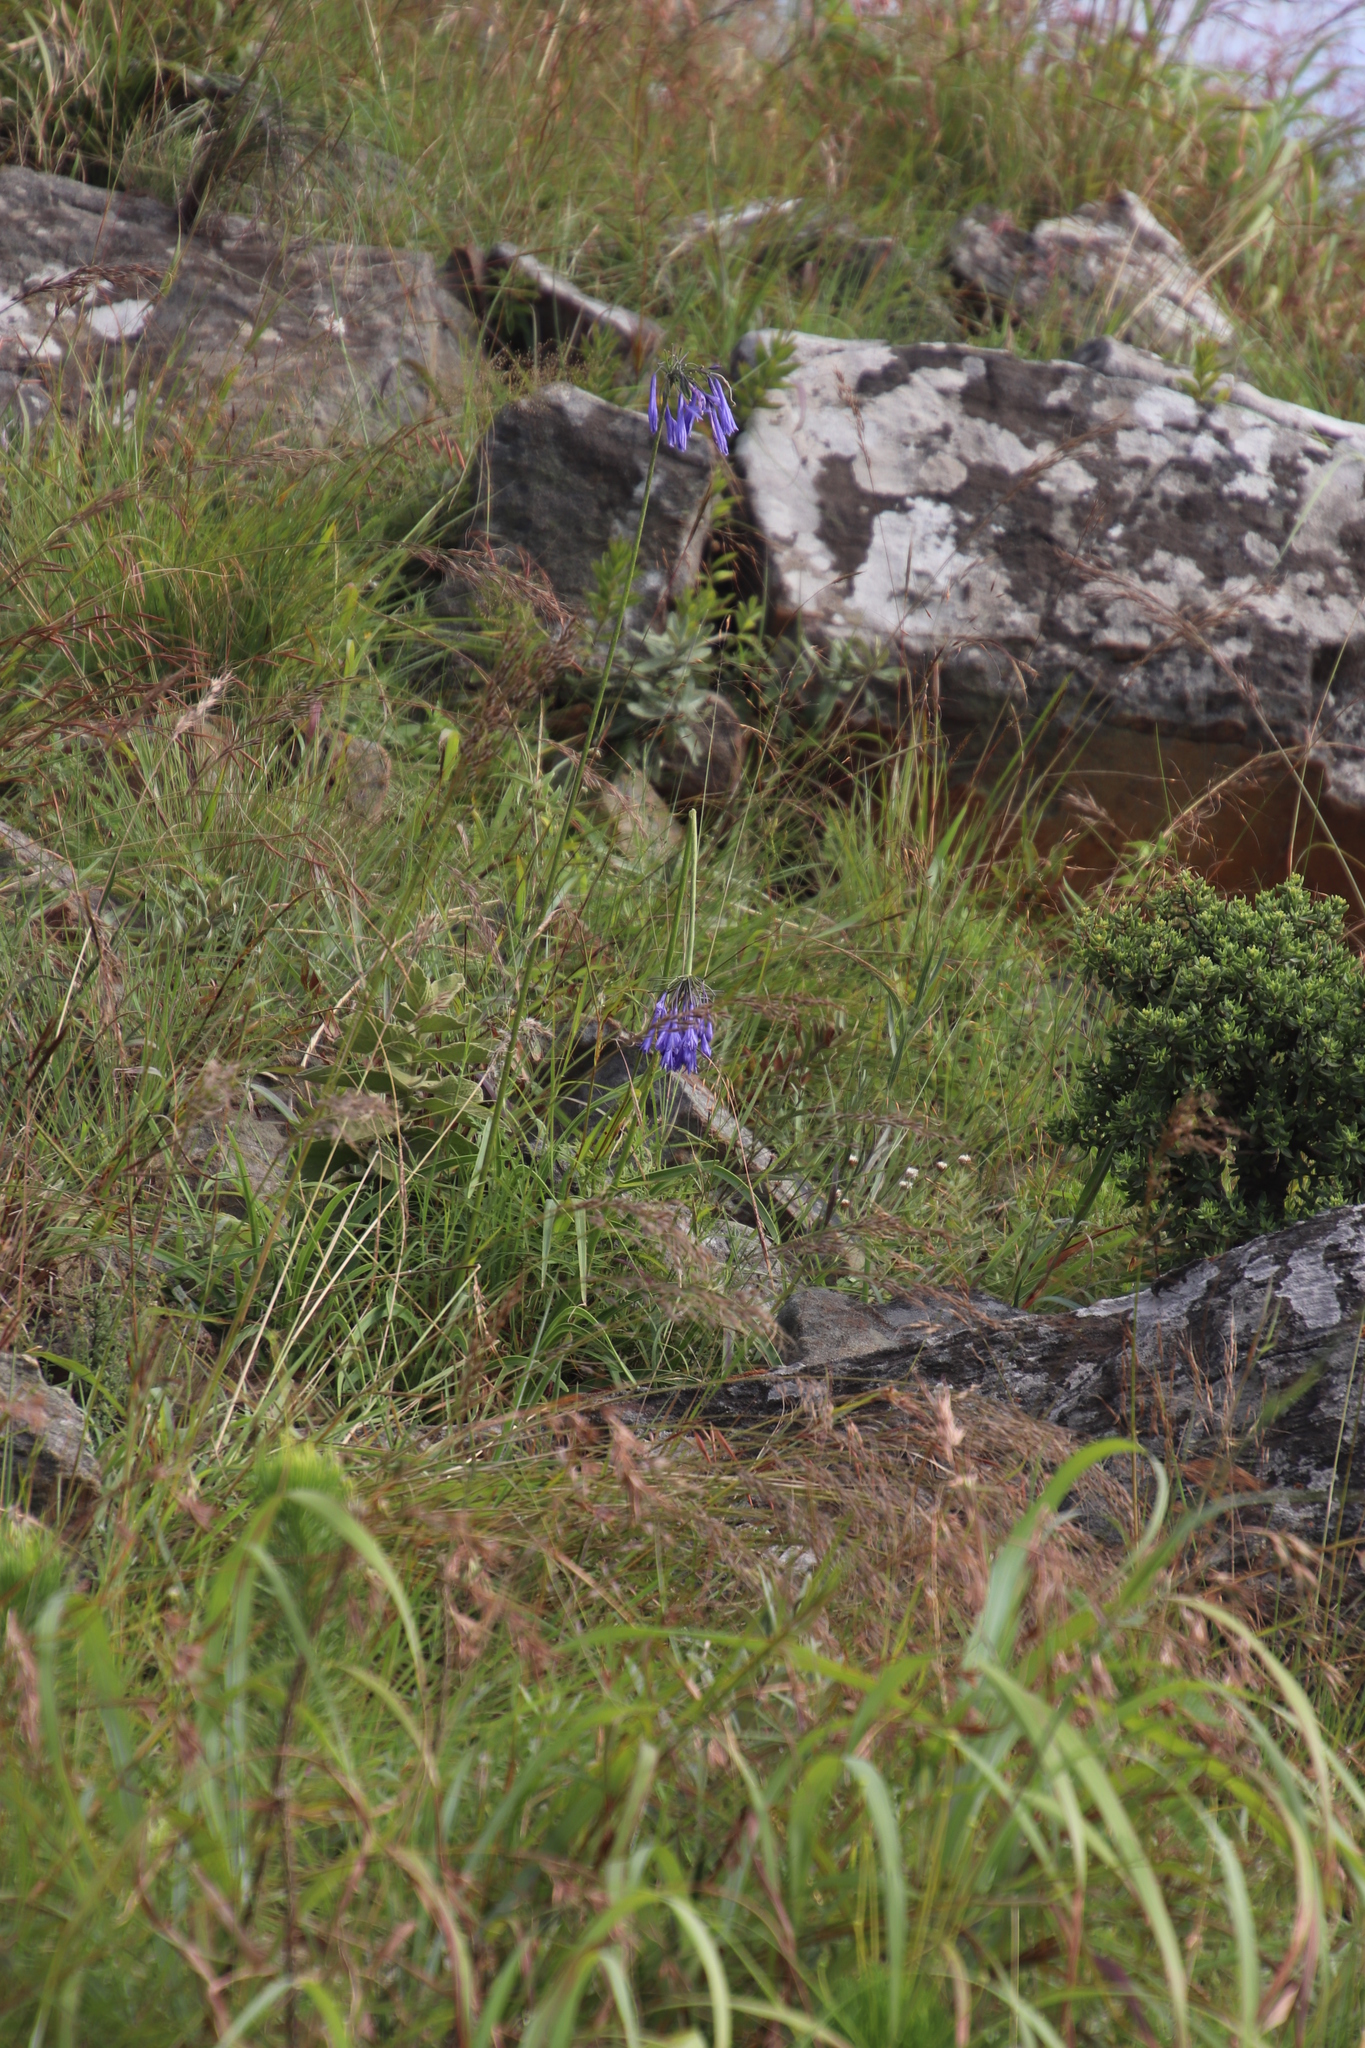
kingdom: Plantae
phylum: Tracheophyta
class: Liliopsida
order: Asparagales
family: Amaryllidaceae
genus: Agapanthus
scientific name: Agapanthus inapertus
